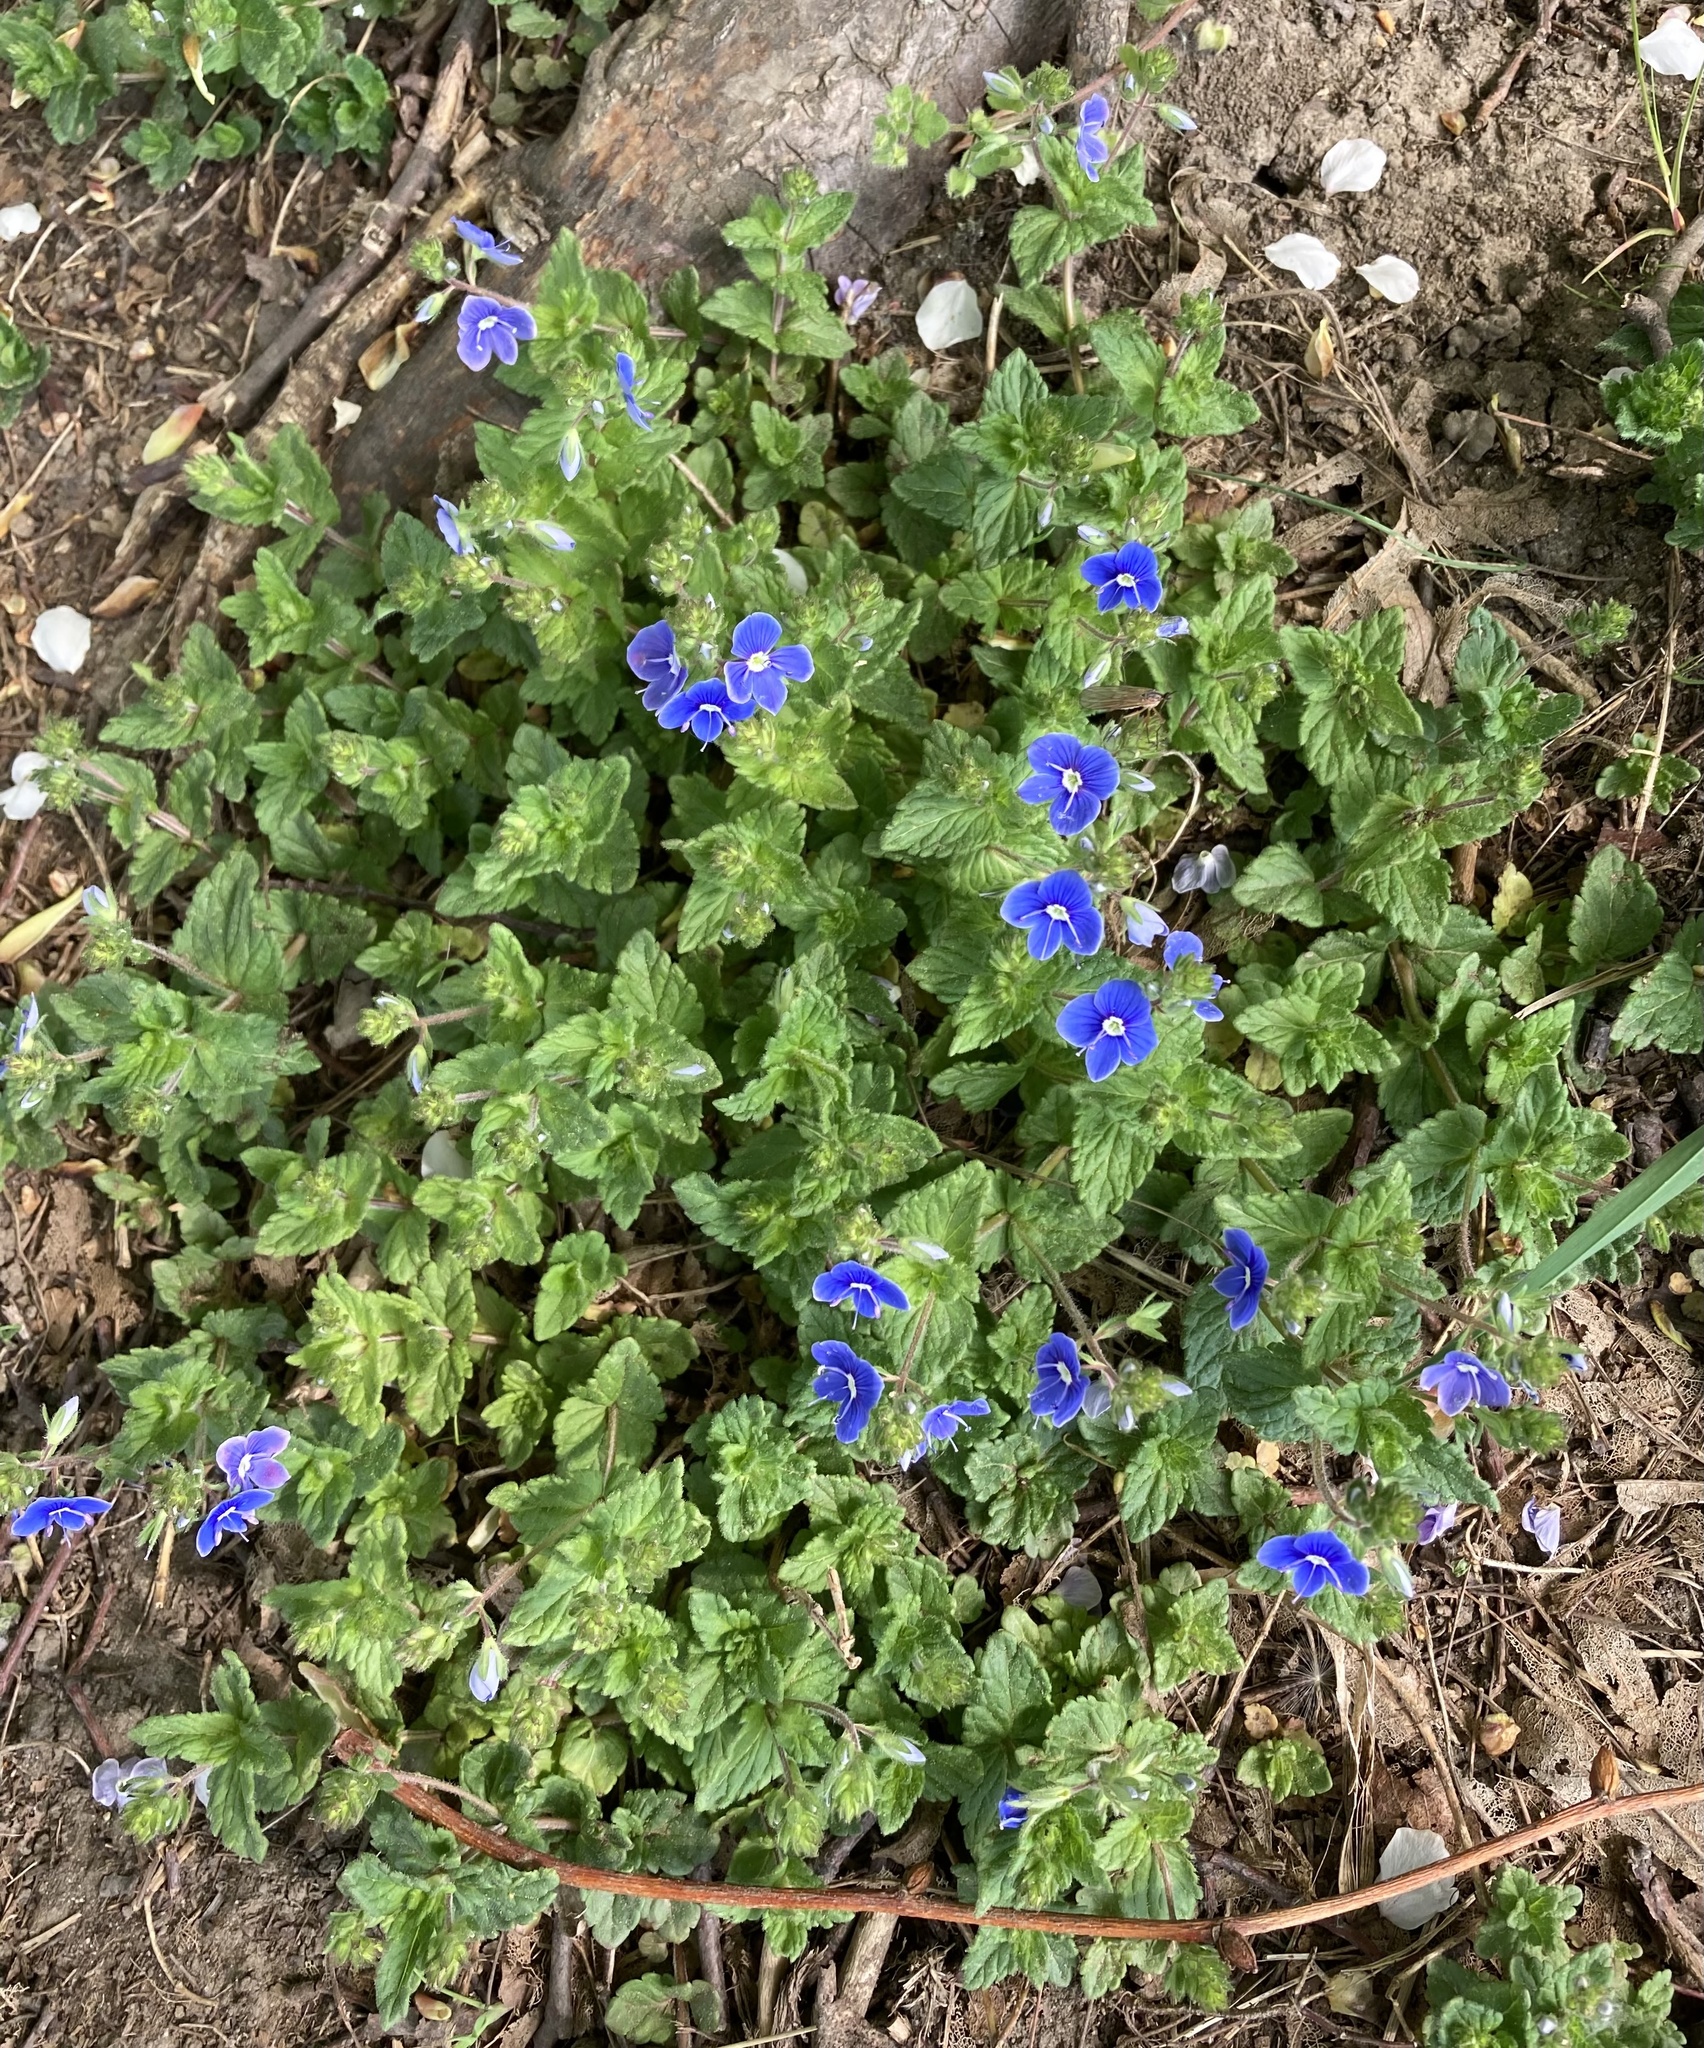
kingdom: Plantae
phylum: Tracheophyta
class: Magnoliopsida
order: Lamiales
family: Plantaginaceae
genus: Veronica
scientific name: Veronica chamaedrys
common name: Germander speedwell
